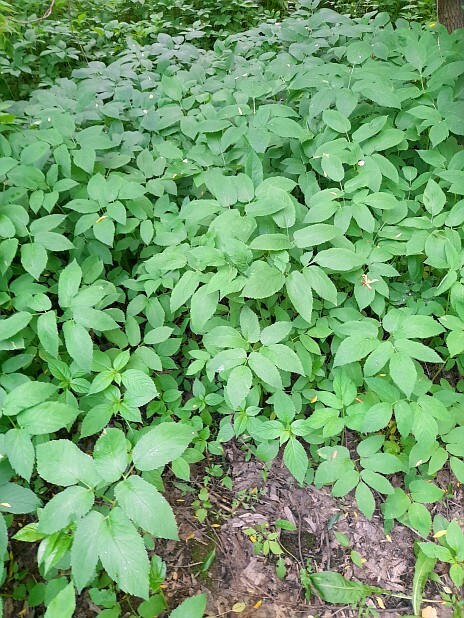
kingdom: Plantae
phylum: Tracheophyta
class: Magnoliopsida
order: Apiales
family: Apiaceae
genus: Aegopodium
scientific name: Aegopodium podagraria
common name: Ground-elder
